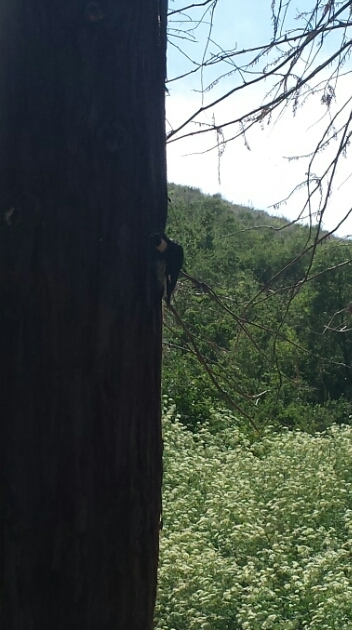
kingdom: Animalia
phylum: Chordata
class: Aves
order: Piciformes
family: Picidae
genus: Melanerpes
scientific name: Melanerpes formicivorus
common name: Acorn woodpecker
